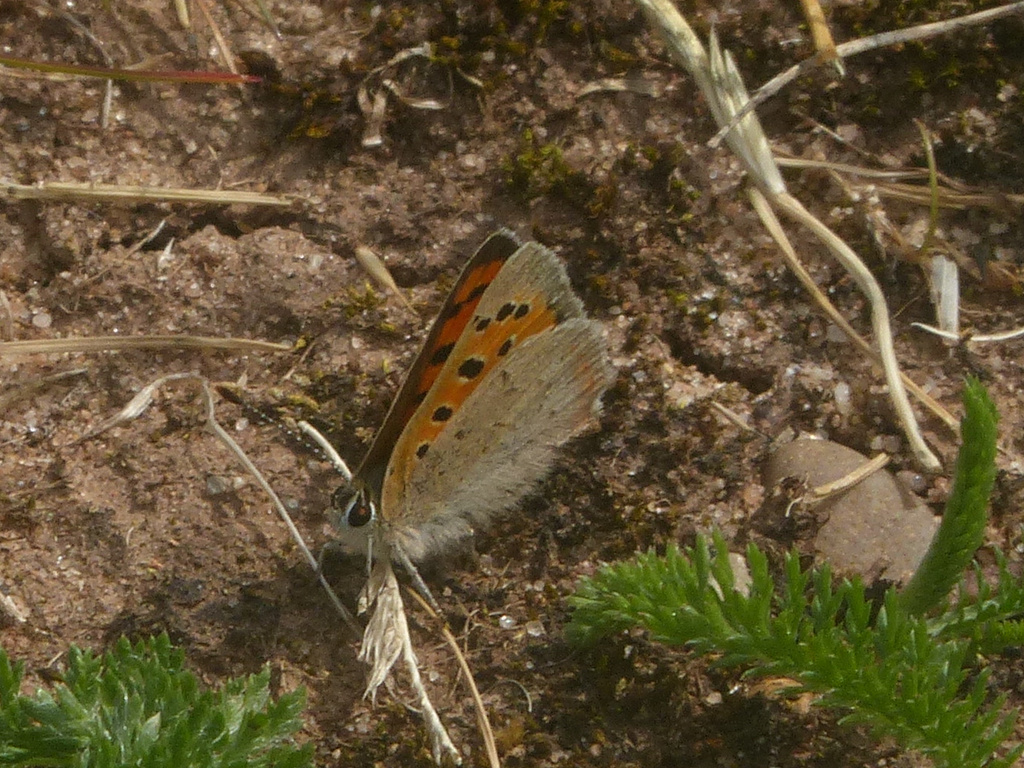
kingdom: Animalia
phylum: Arthropoda
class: Insecta
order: Lepidoptera
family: Lycaenidae
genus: Lycaena
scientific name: Lycaena phlaeas
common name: Small copper
